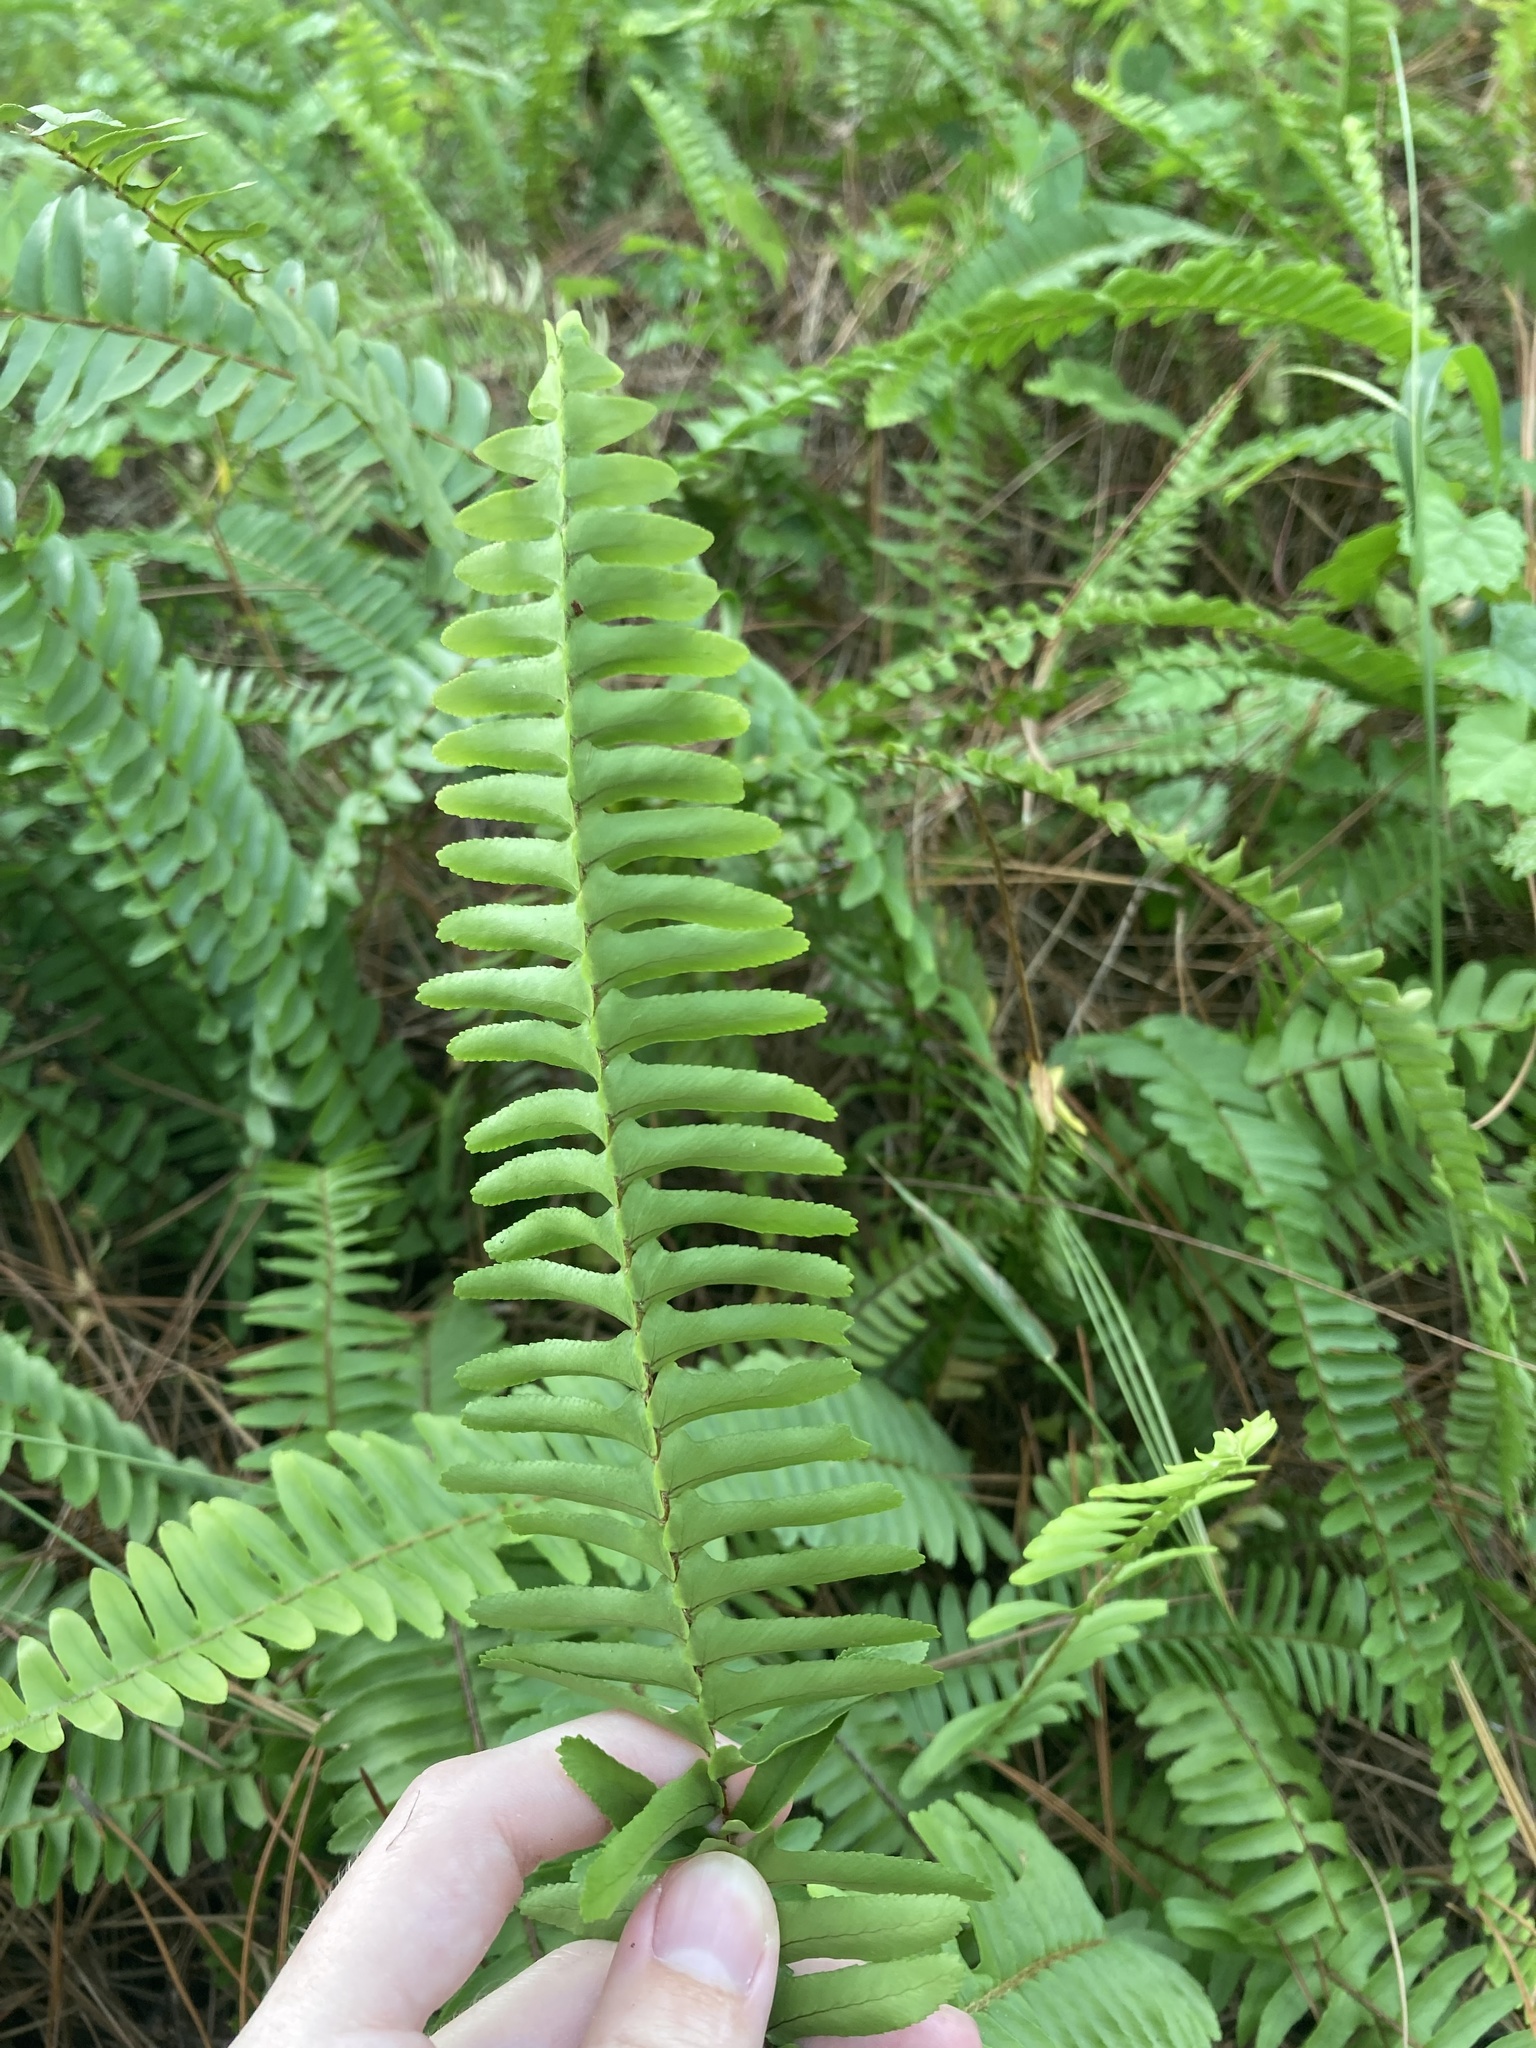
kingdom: Plantae
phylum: Tracheophyta
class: Polypodiopsida
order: Polypodiales
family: Nephrolepidaceae
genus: Nephrolepis
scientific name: Nephrolepis cordifolia
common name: Narrow swordfern
